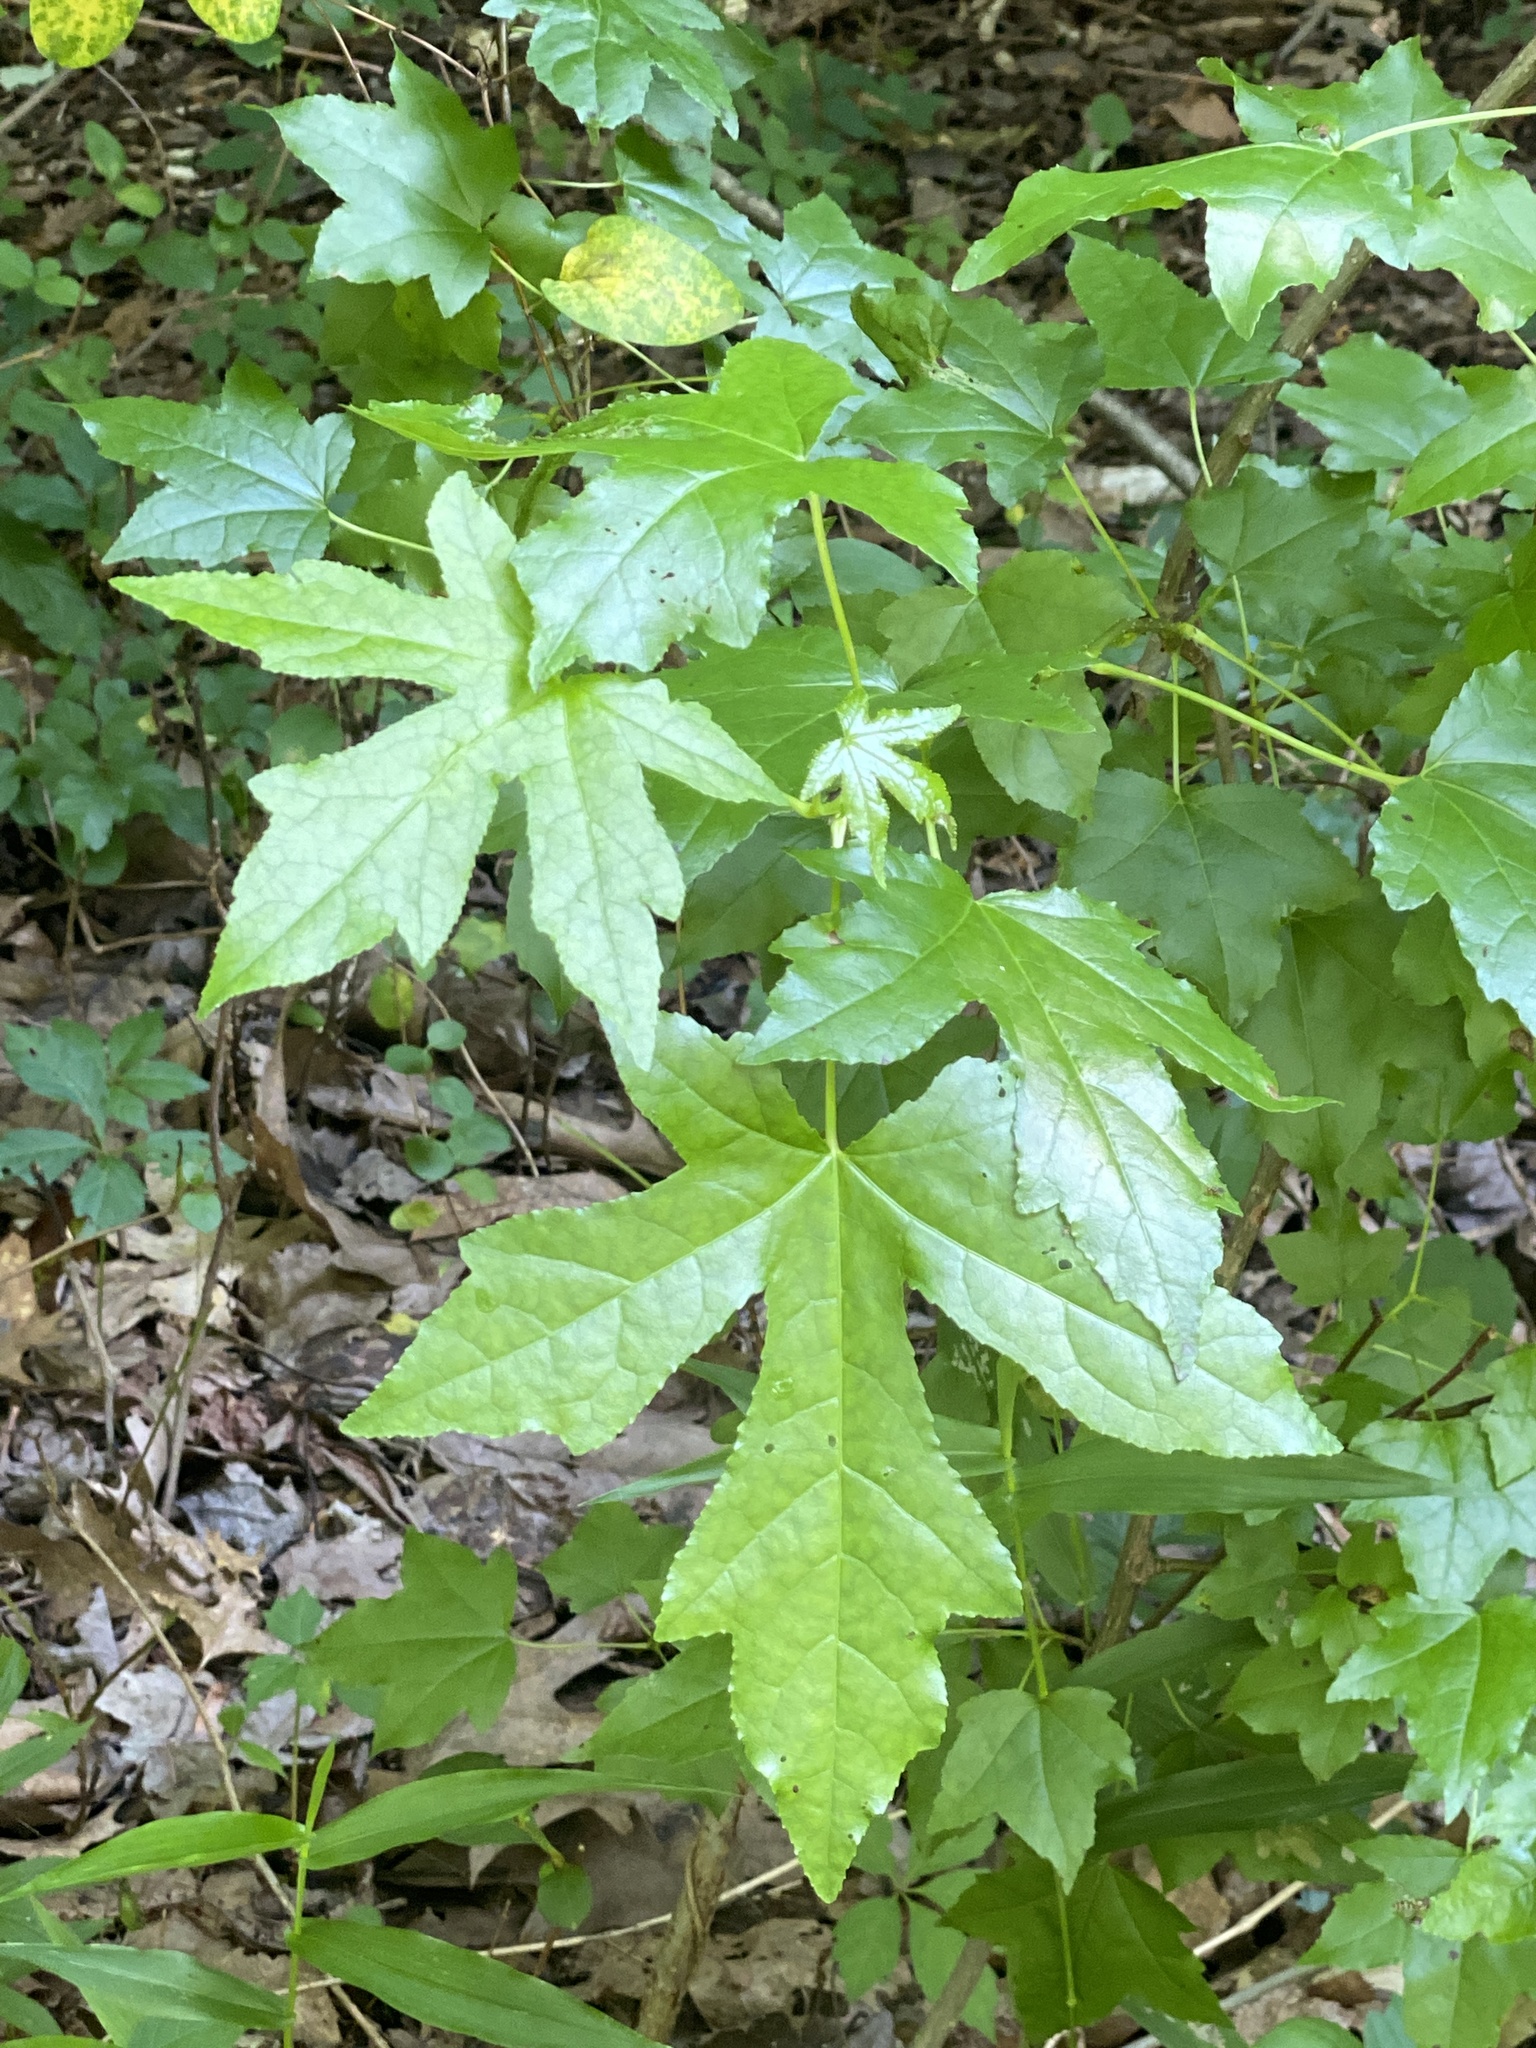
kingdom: Plantae
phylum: Tracheophyta
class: Magnoliopsida
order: Saxifragales
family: Altingiaceae
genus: Liquidambar
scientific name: Liquidambar styraciflua
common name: Sweet gum
